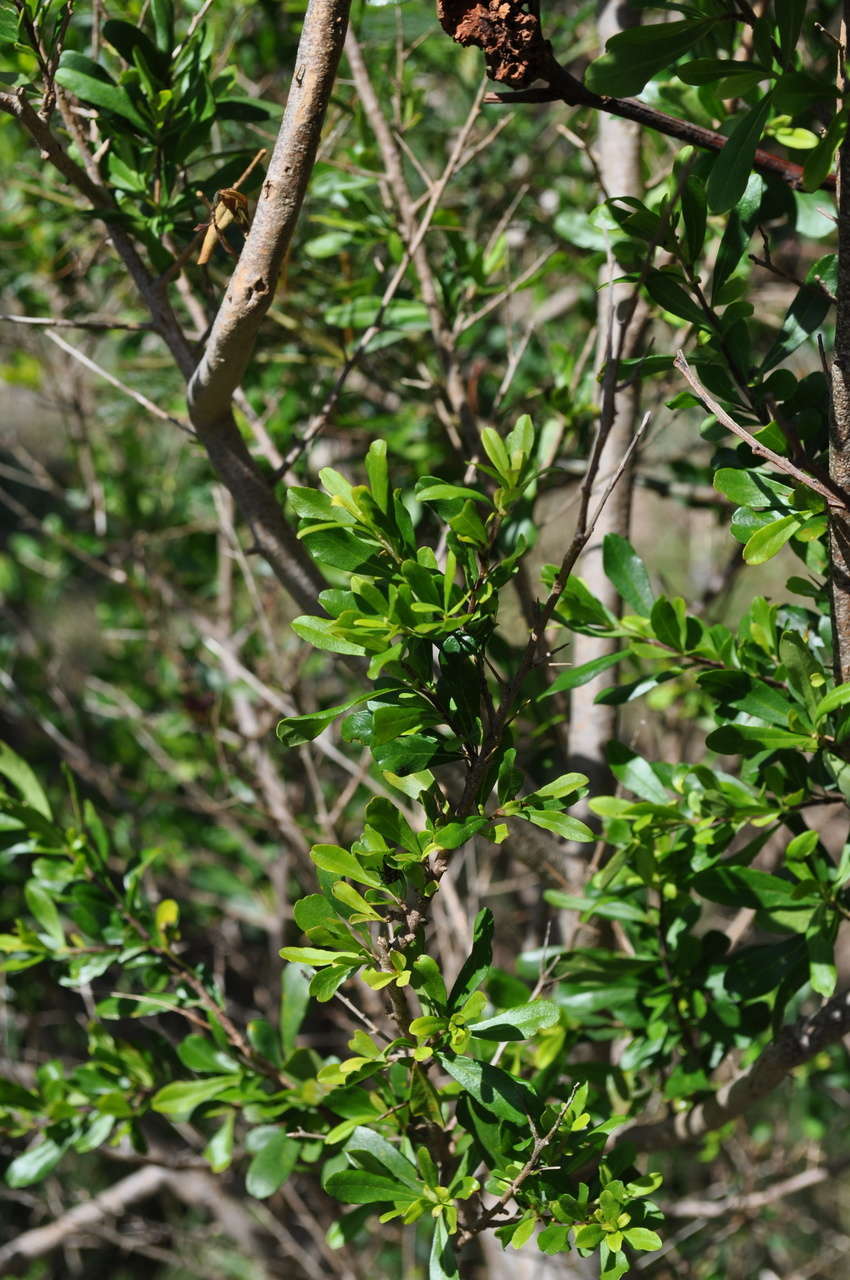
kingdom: Plantae
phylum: Tracheophyta
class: Magnoliopsida
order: Apiales
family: Pittosporaceae
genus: Bursaria
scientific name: Bursaria spinosa
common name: Australian blackthorn
